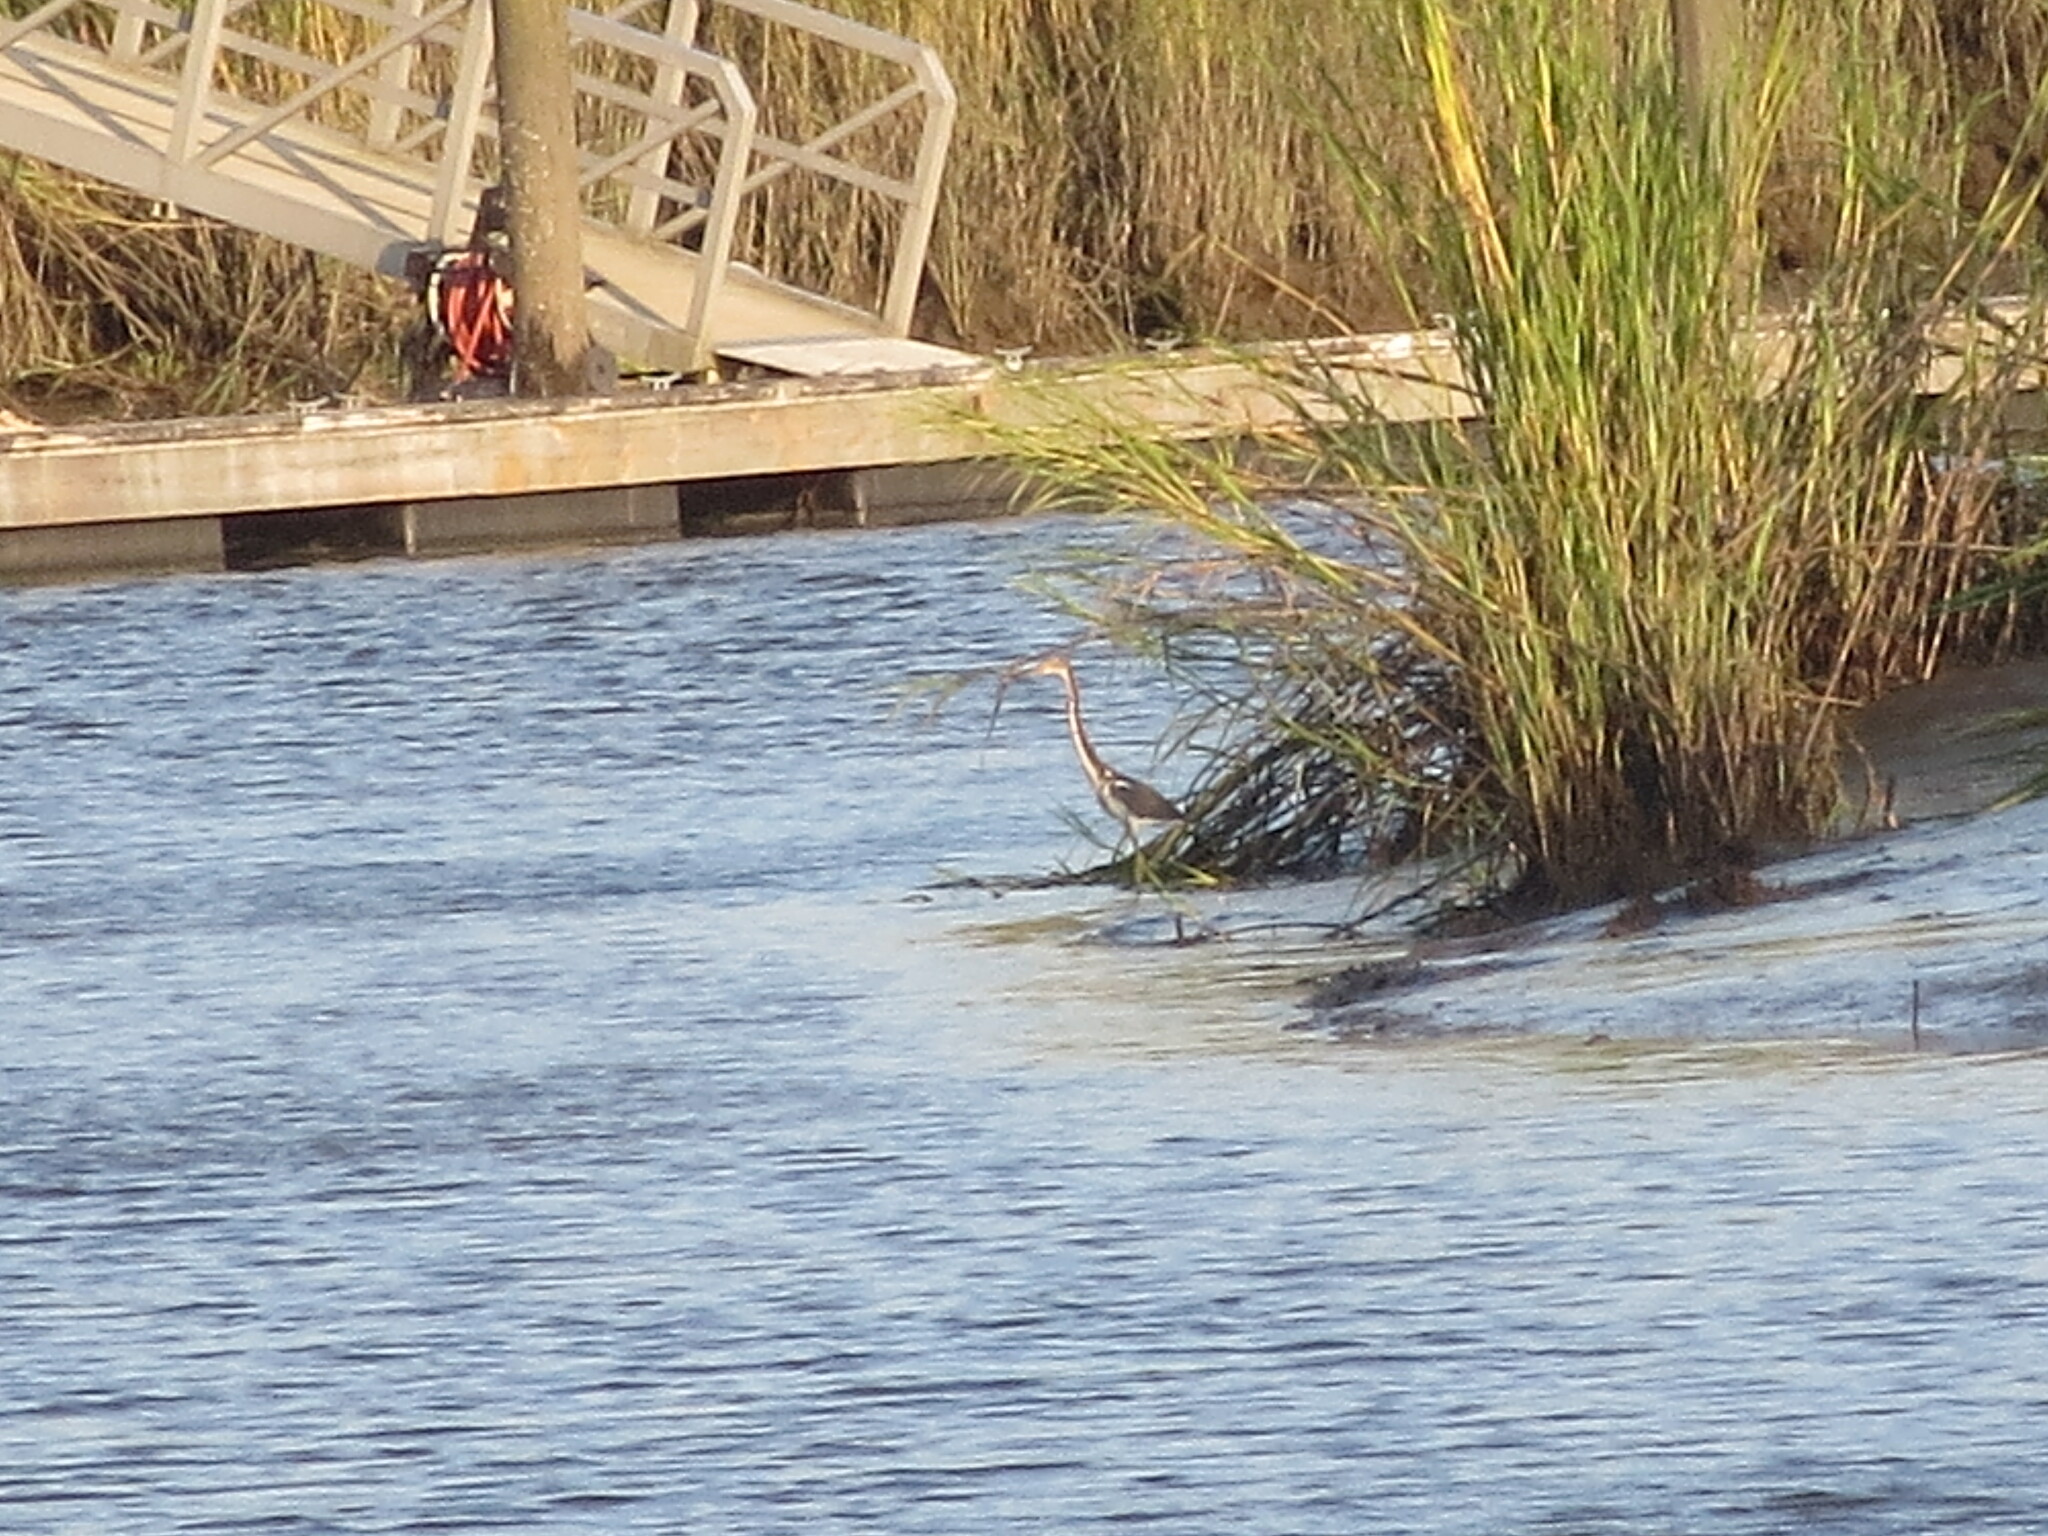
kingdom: Animalia
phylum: Chordata
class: Aves
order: Pelecaniformes
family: Ardeidae
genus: Egretta
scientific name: Egretta tricolor
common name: Tricolored heron
